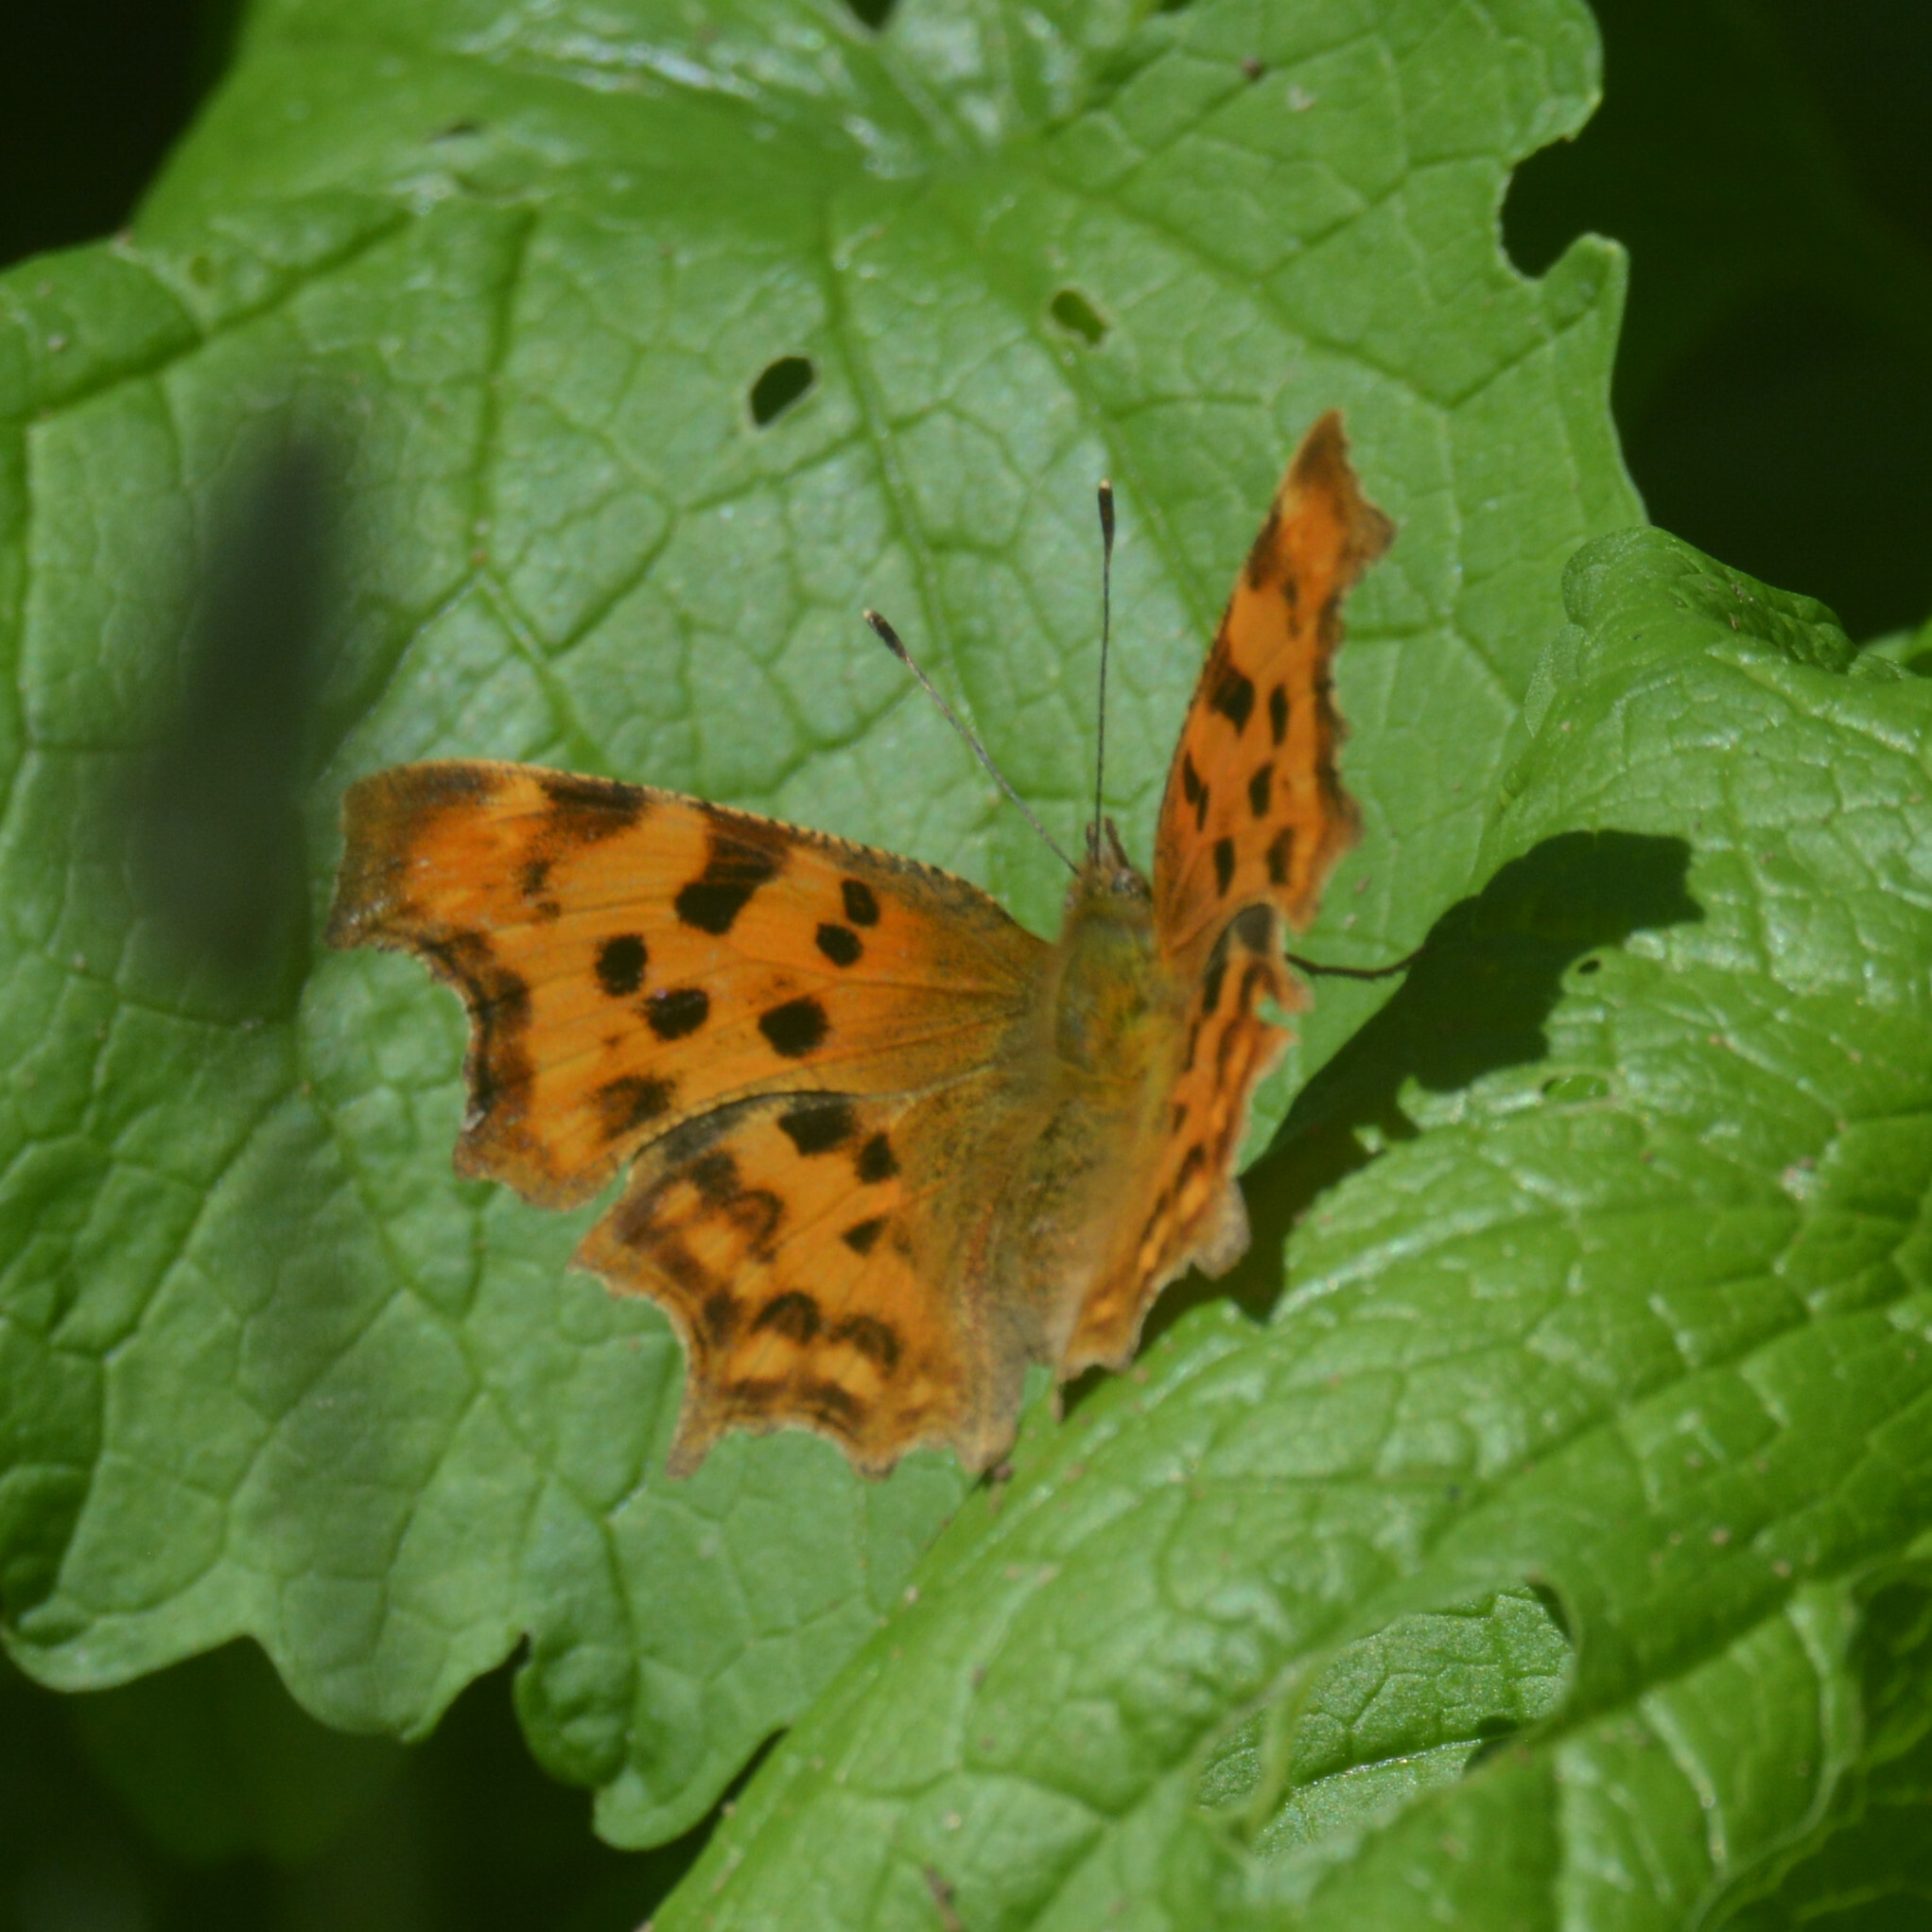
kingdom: Animalia
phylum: Arthropoda
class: Insecta
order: Lepidoptera
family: Nymphalidae
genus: Polygonia
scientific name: Polygonia c-album
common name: Comma
